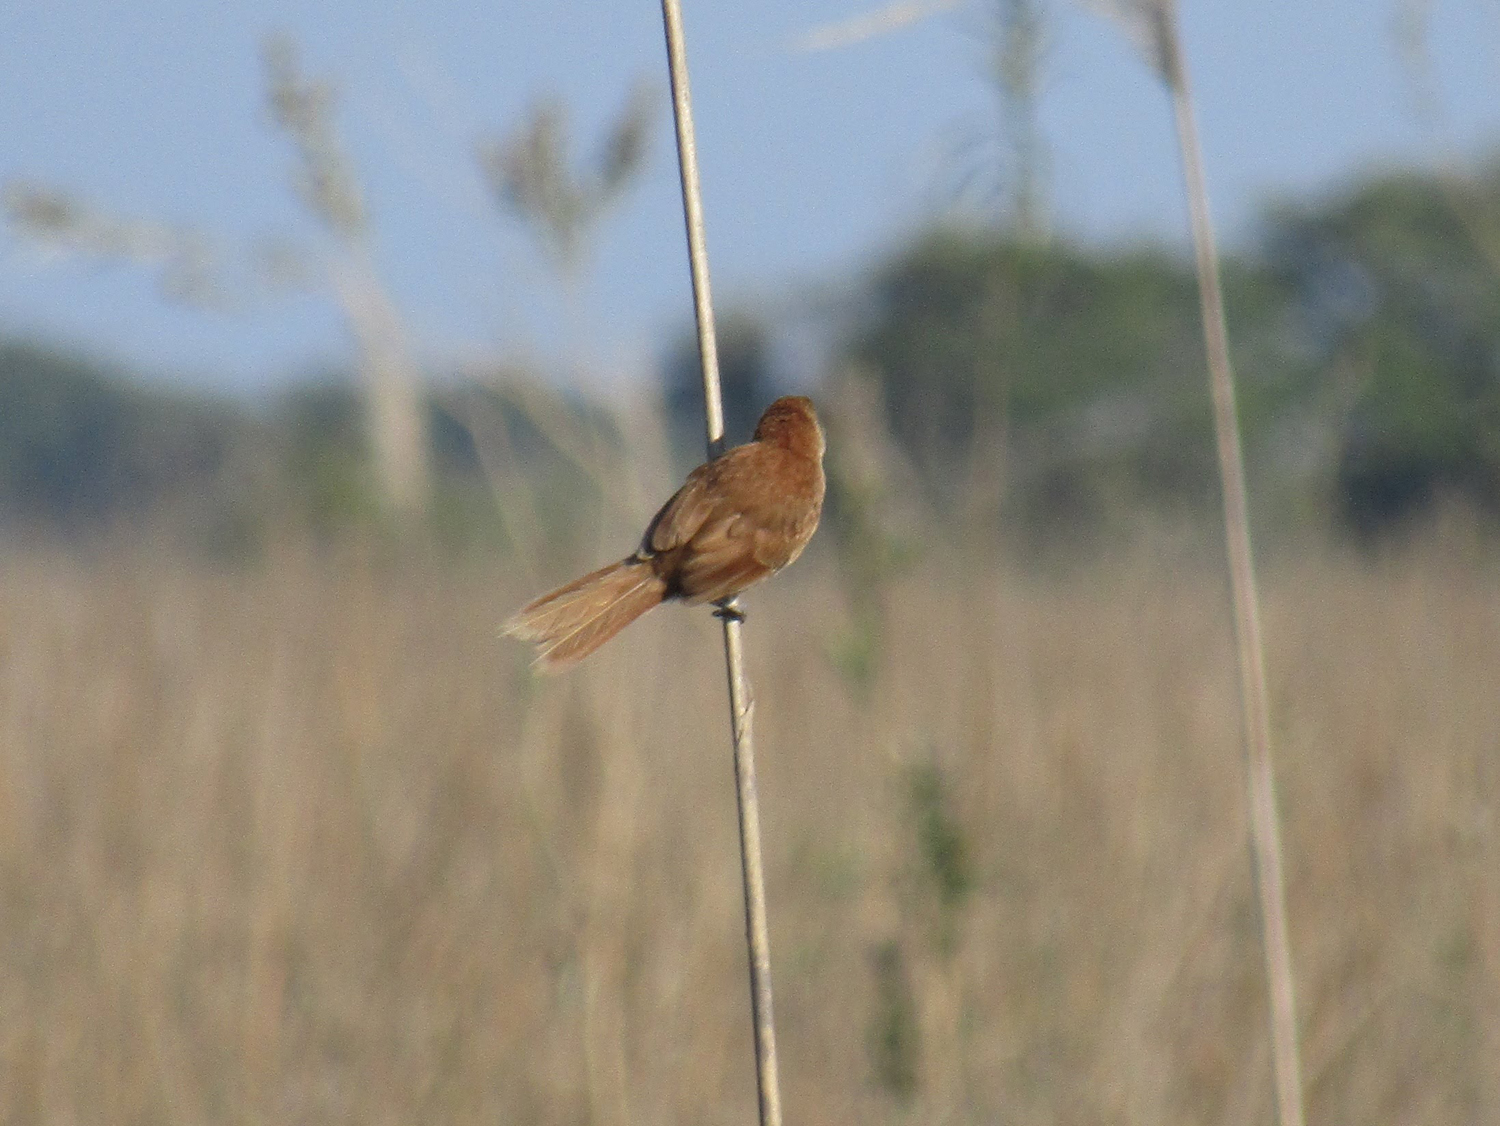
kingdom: Animalia
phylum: Chordata
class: Aves
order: Passeriformes
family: Furnariidae
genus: Phacellodomus
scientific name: Phacellodomus striaticollis
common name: Freckle-breasted thornbird
